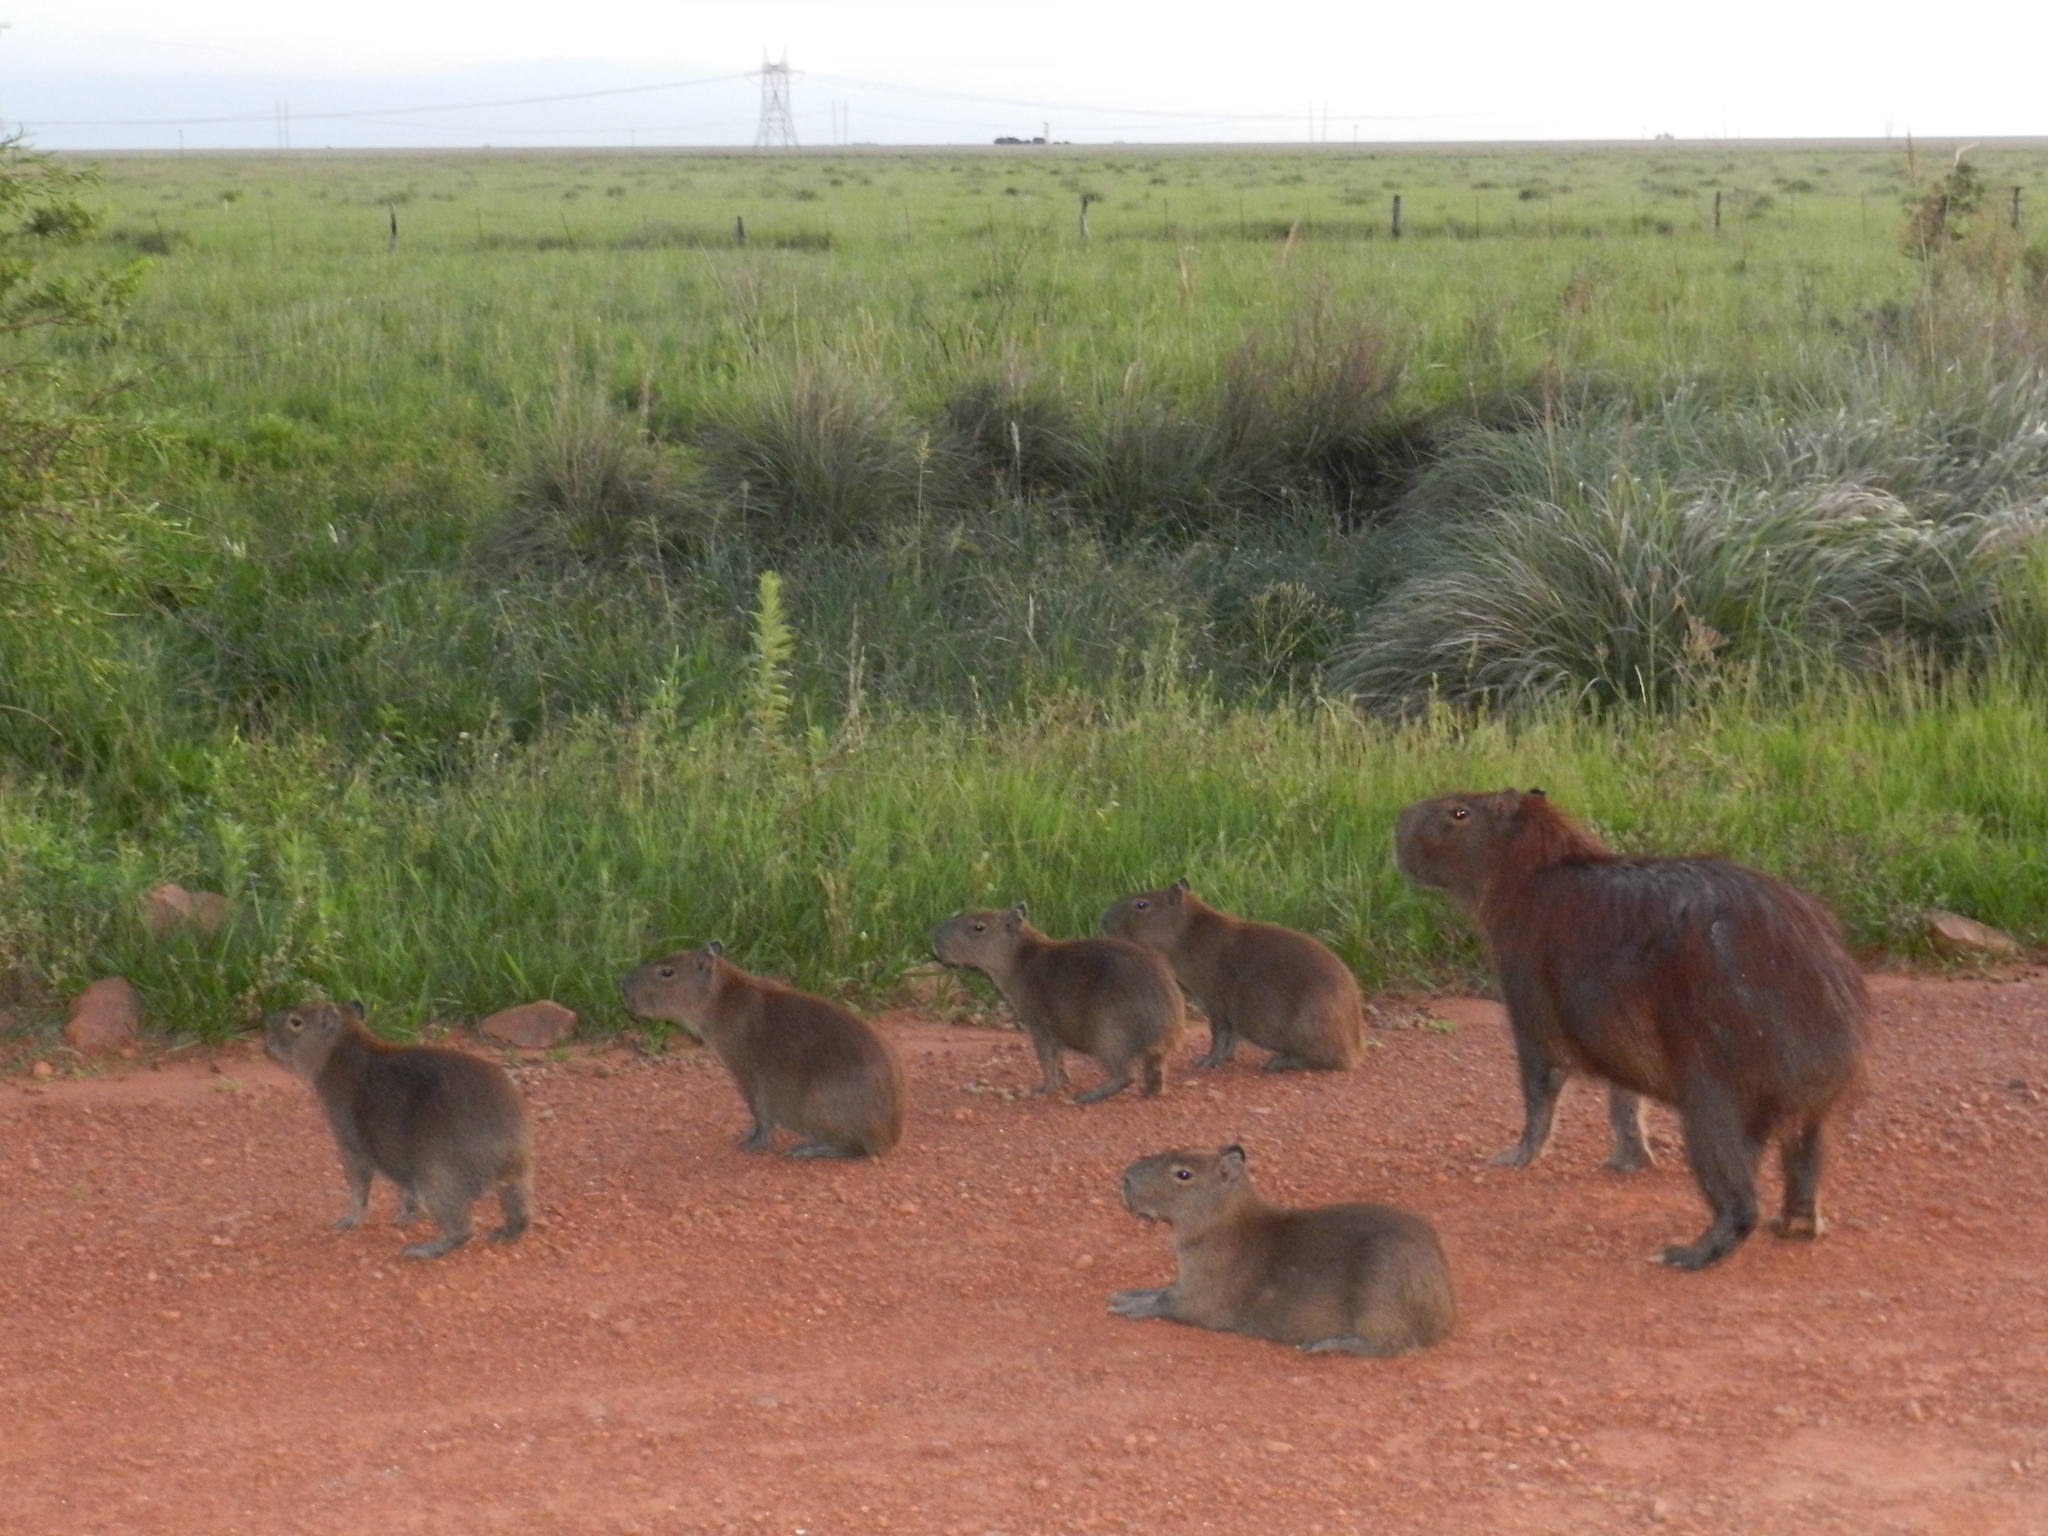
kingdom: Animalia
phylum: Chordata
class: Mammalia
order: Rodentia
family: Caviidae
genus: Hydrochoerus
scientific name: Hydrochoerus hydrochaeris
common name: Capybara
